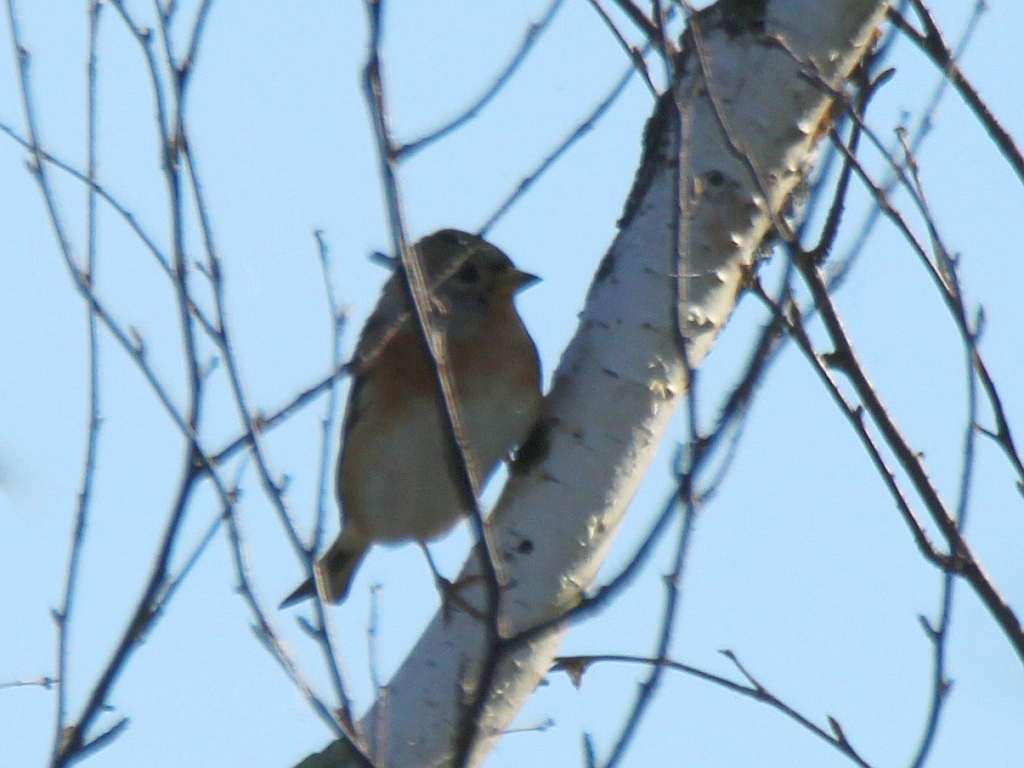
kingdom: Animalia
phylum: Chordata
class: Aves
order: Passeriformes
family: Fringillidae
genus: Fringilla
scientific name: Fringilla montifringilla
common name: Brambling
